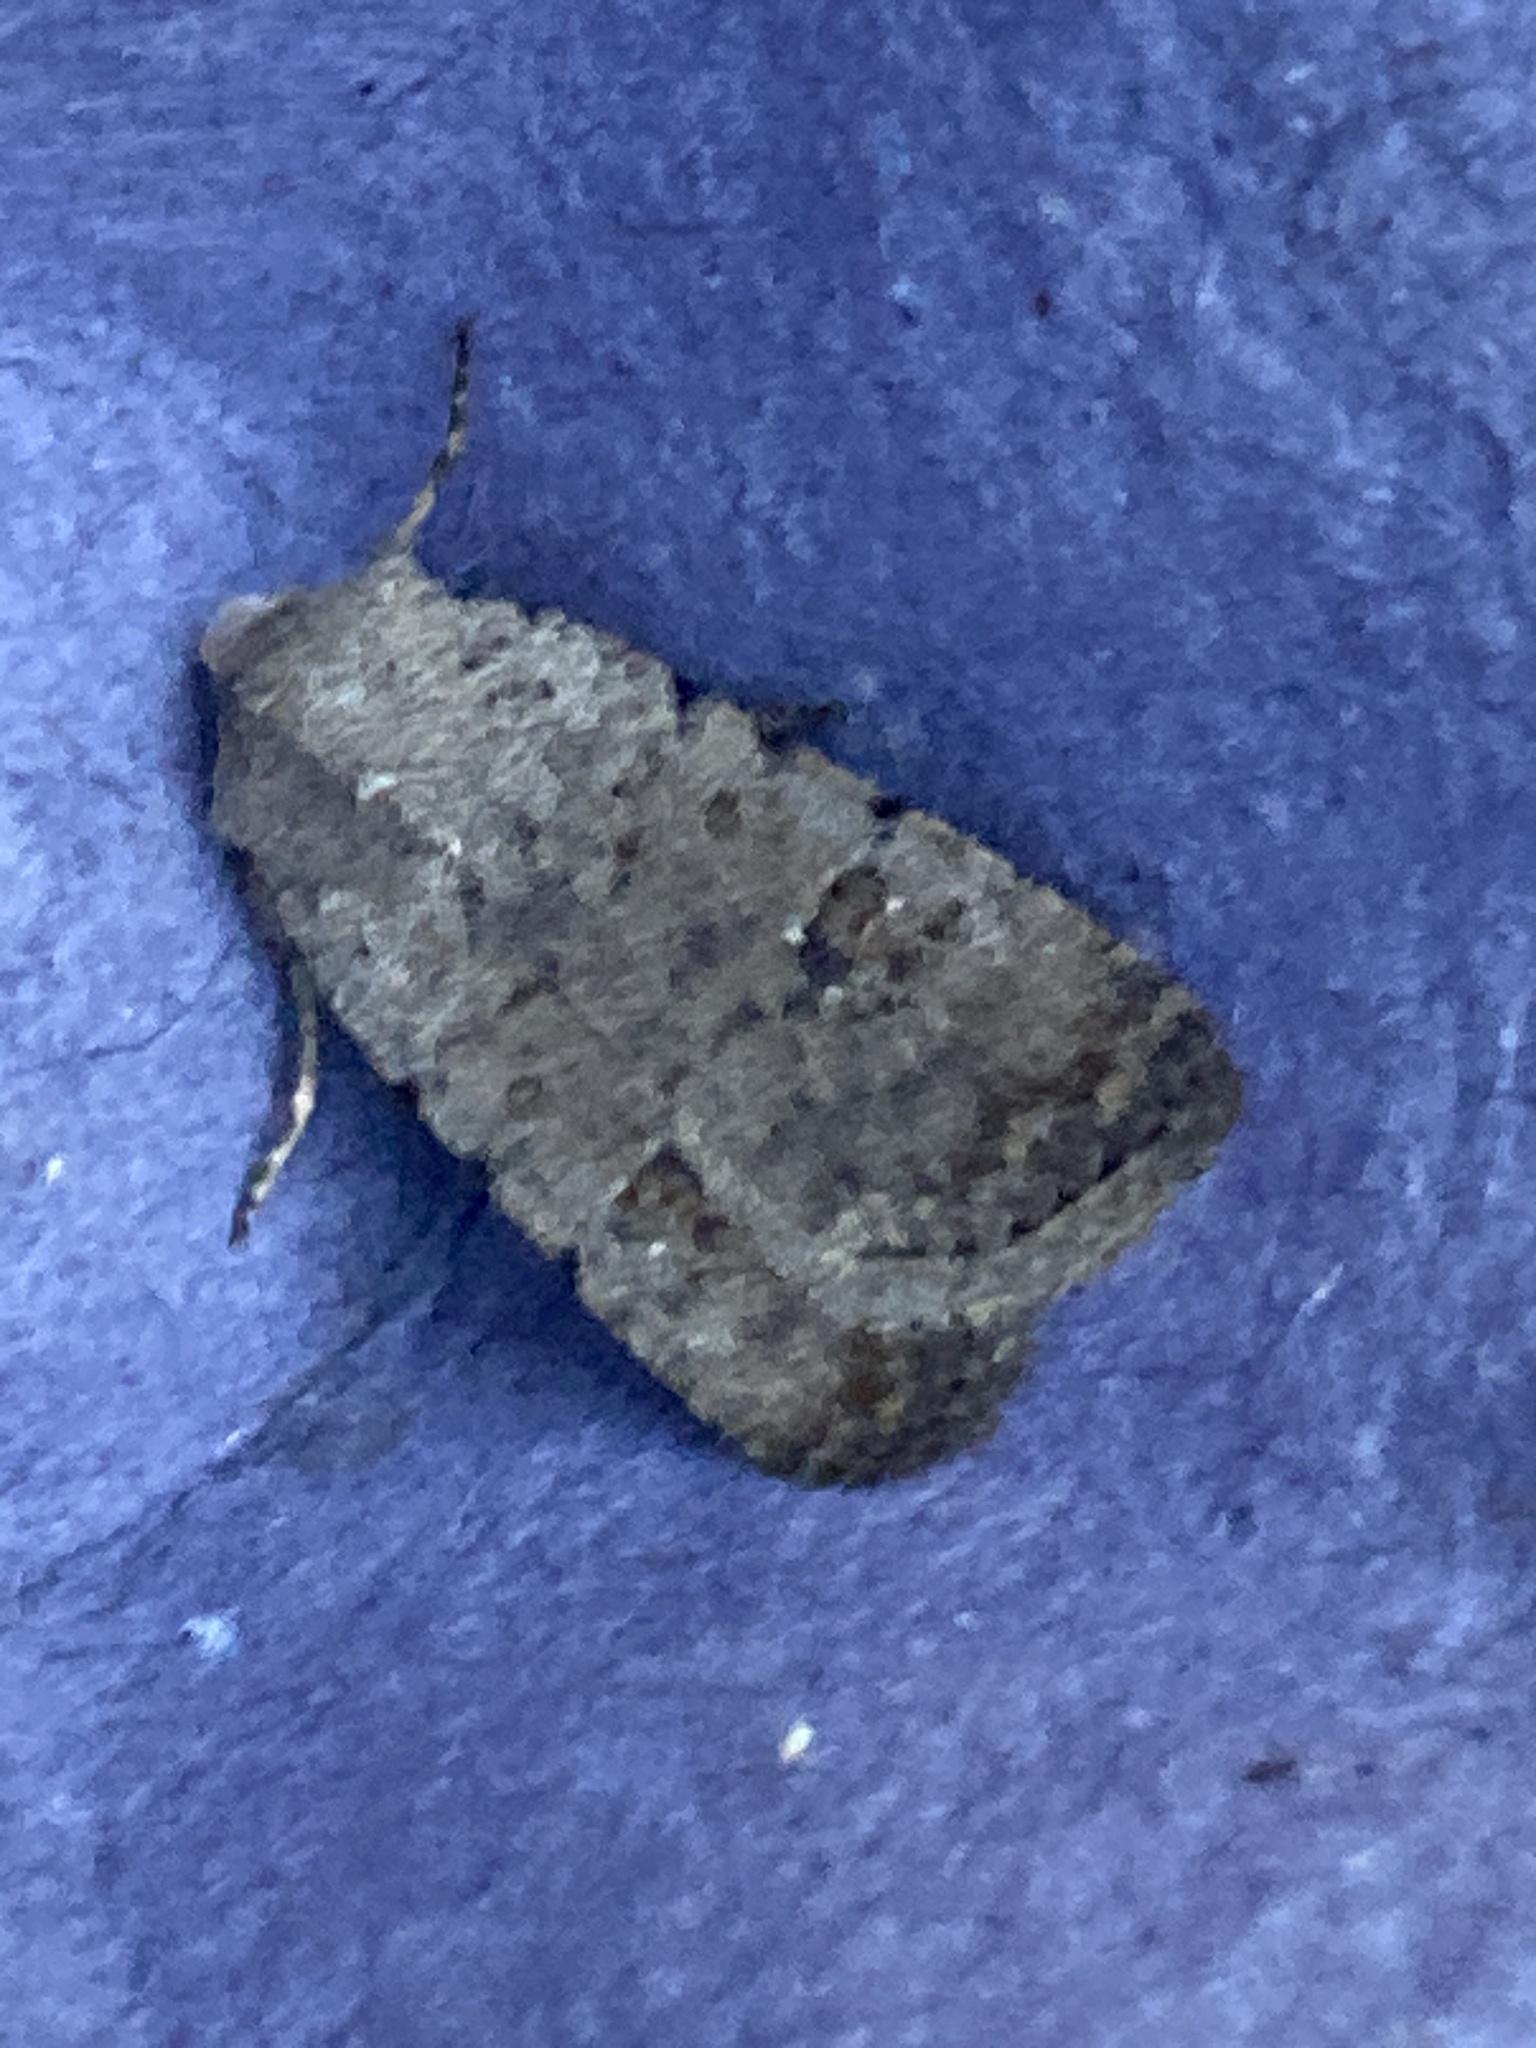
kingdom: Animalia
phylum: Arthropoda
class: Insecta
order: Lepidoptera
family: Noctuidae
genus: Caradrina
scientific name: Caradrina clavipalpis
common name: Pale mottled willow
